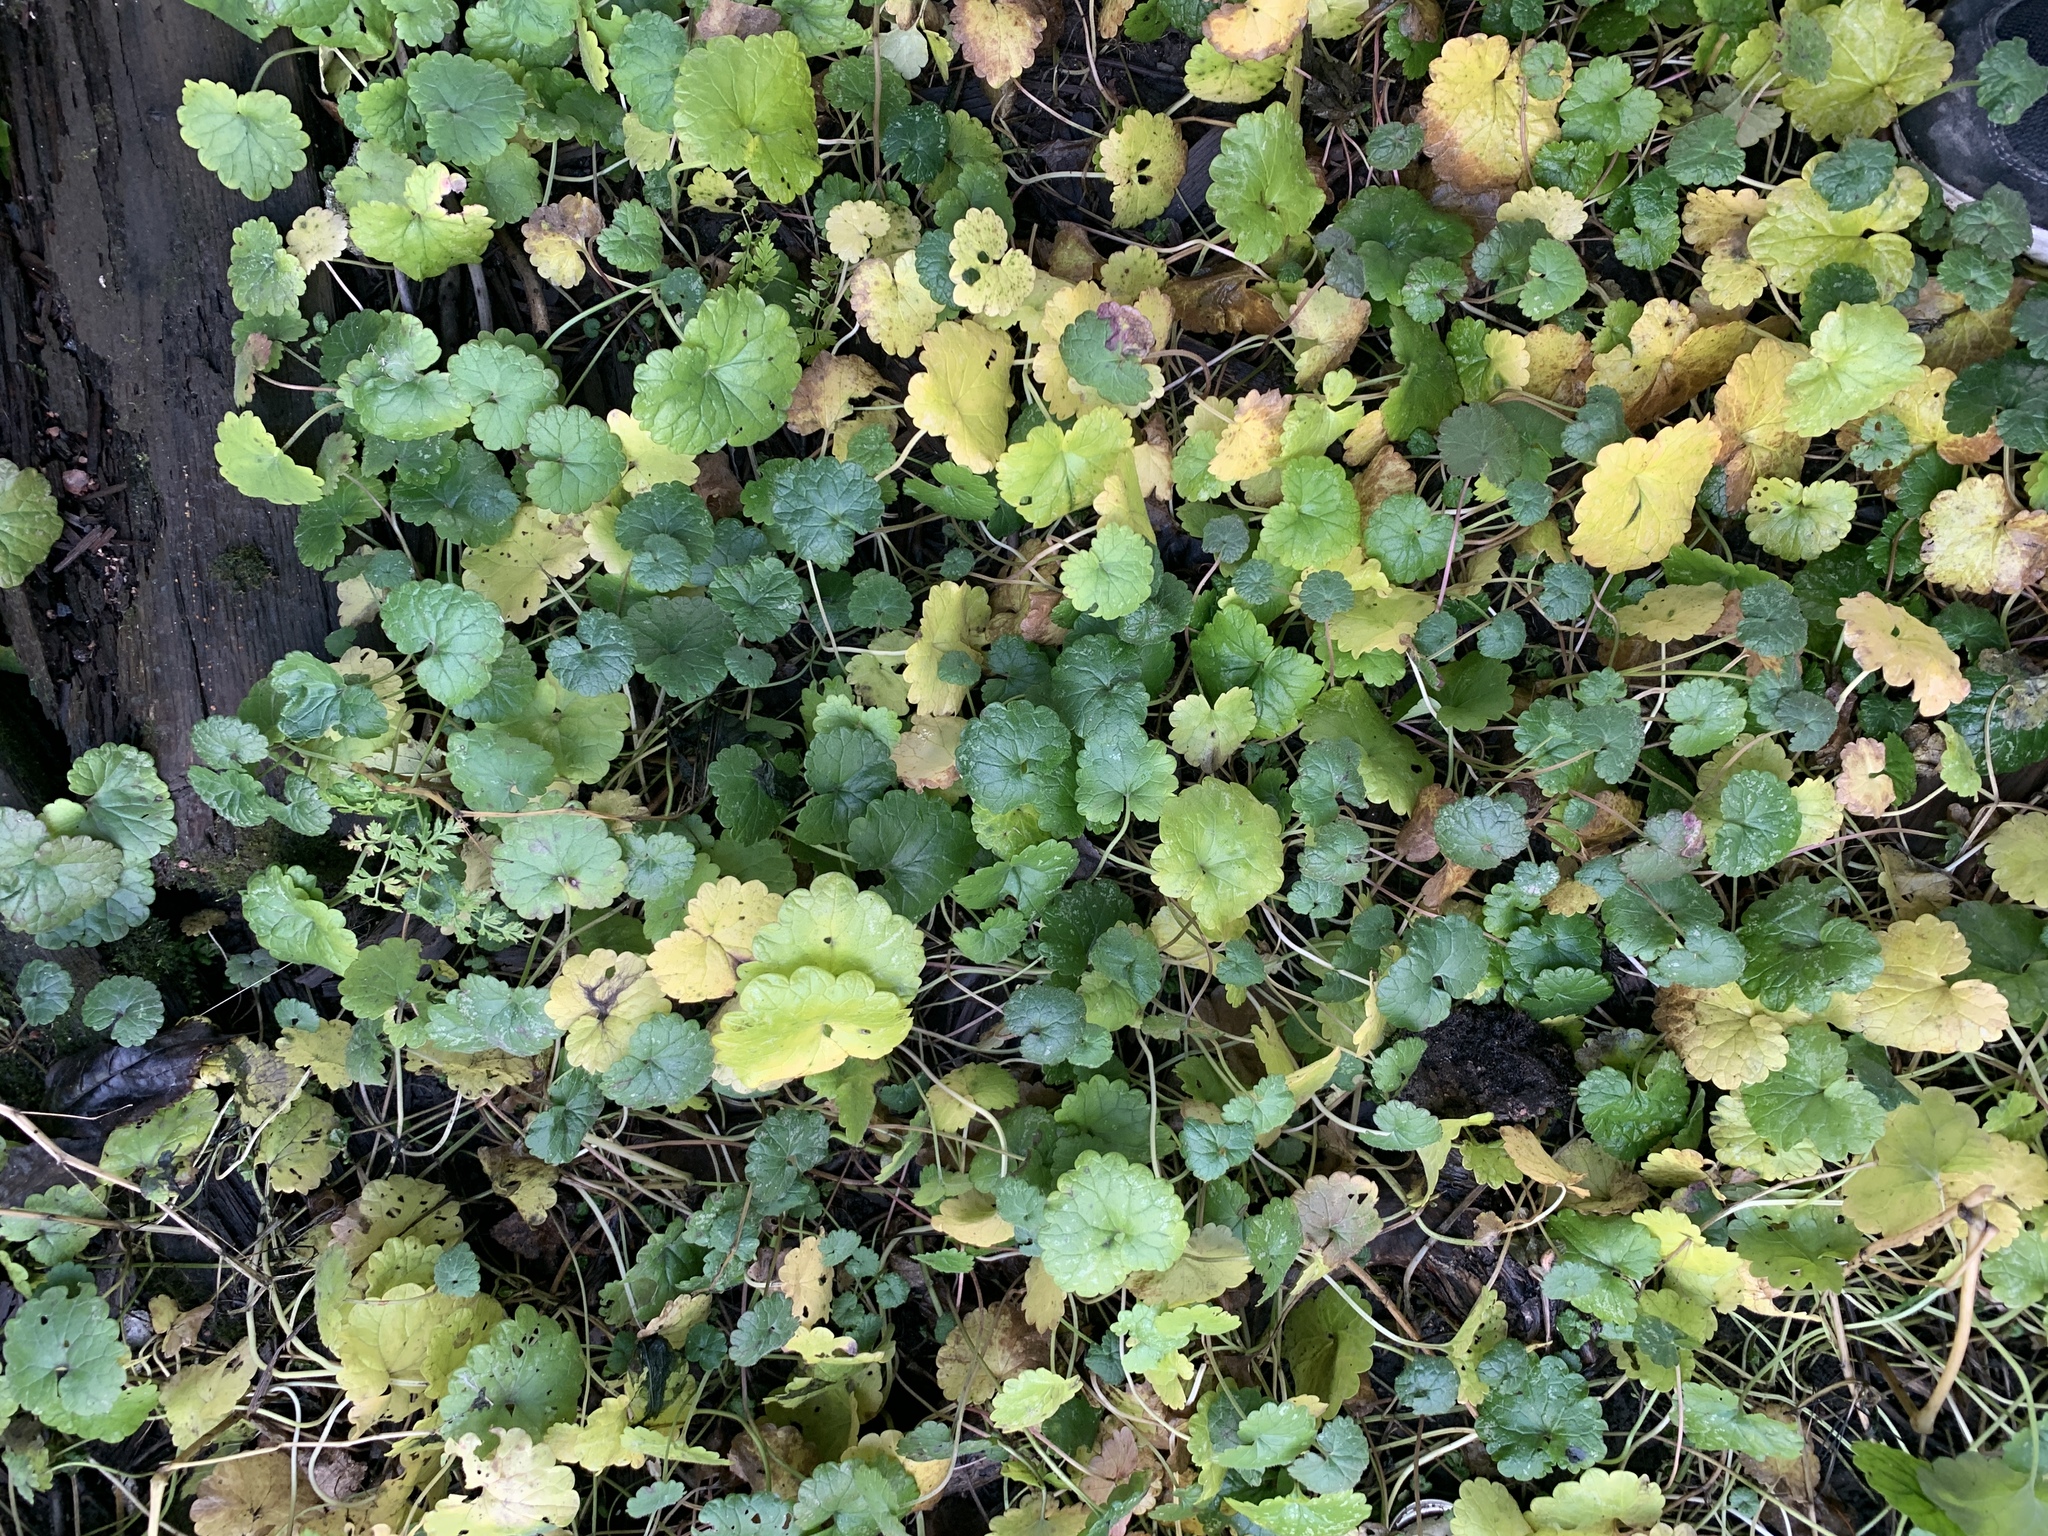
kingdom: Plantae
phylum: Tracheophyta
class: Magnoliopsida
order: Lamiales
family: Lamiaceae
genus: Glechoma
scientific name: Glechoma hederacea
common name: Ground ivy
